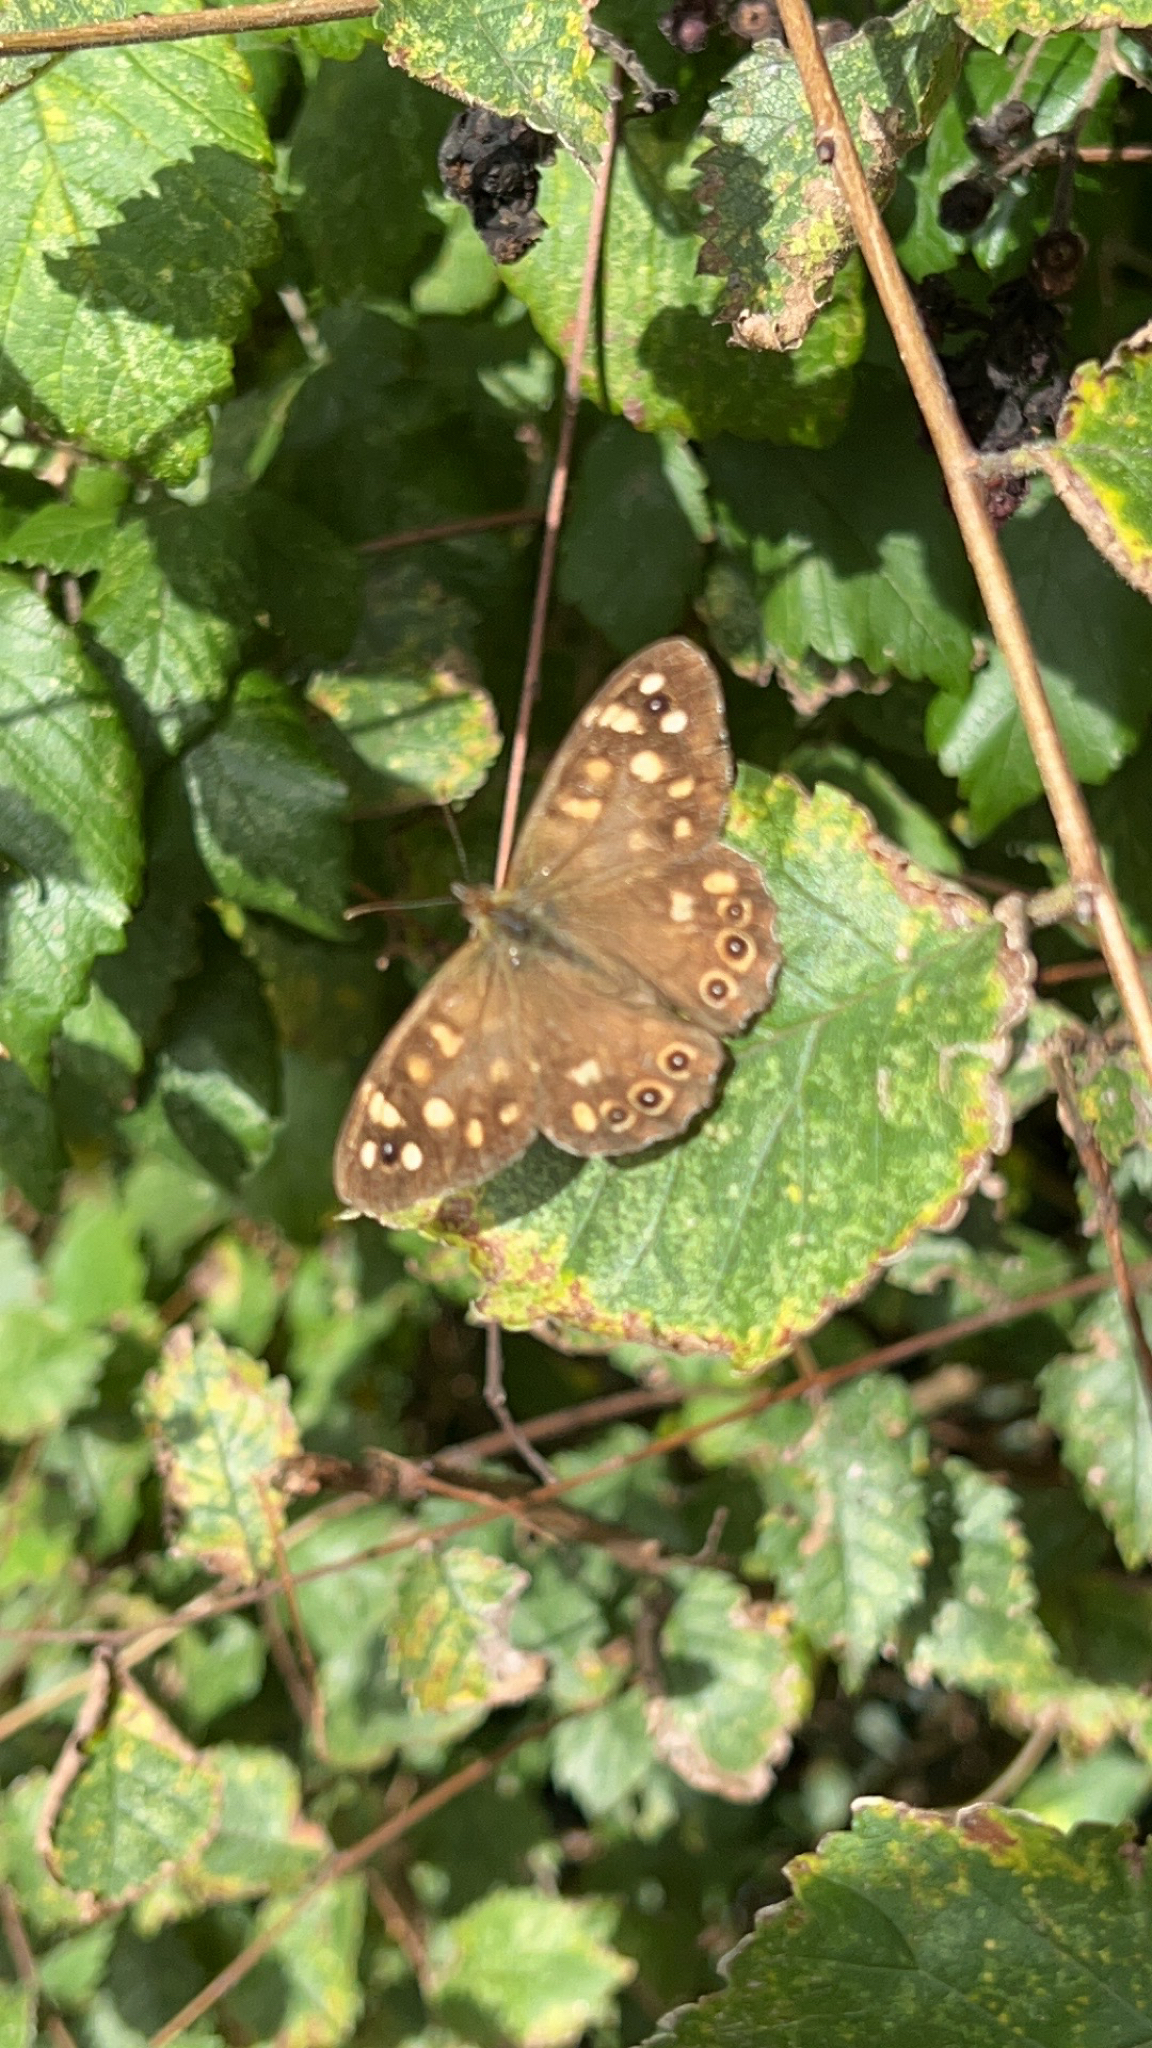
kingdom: Animalia
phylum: Arthropoda
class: Insecta
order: Lepidoptera
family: Nymphalidae
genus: Pararge
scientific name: Pararge aegeria
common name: Speckled wood
